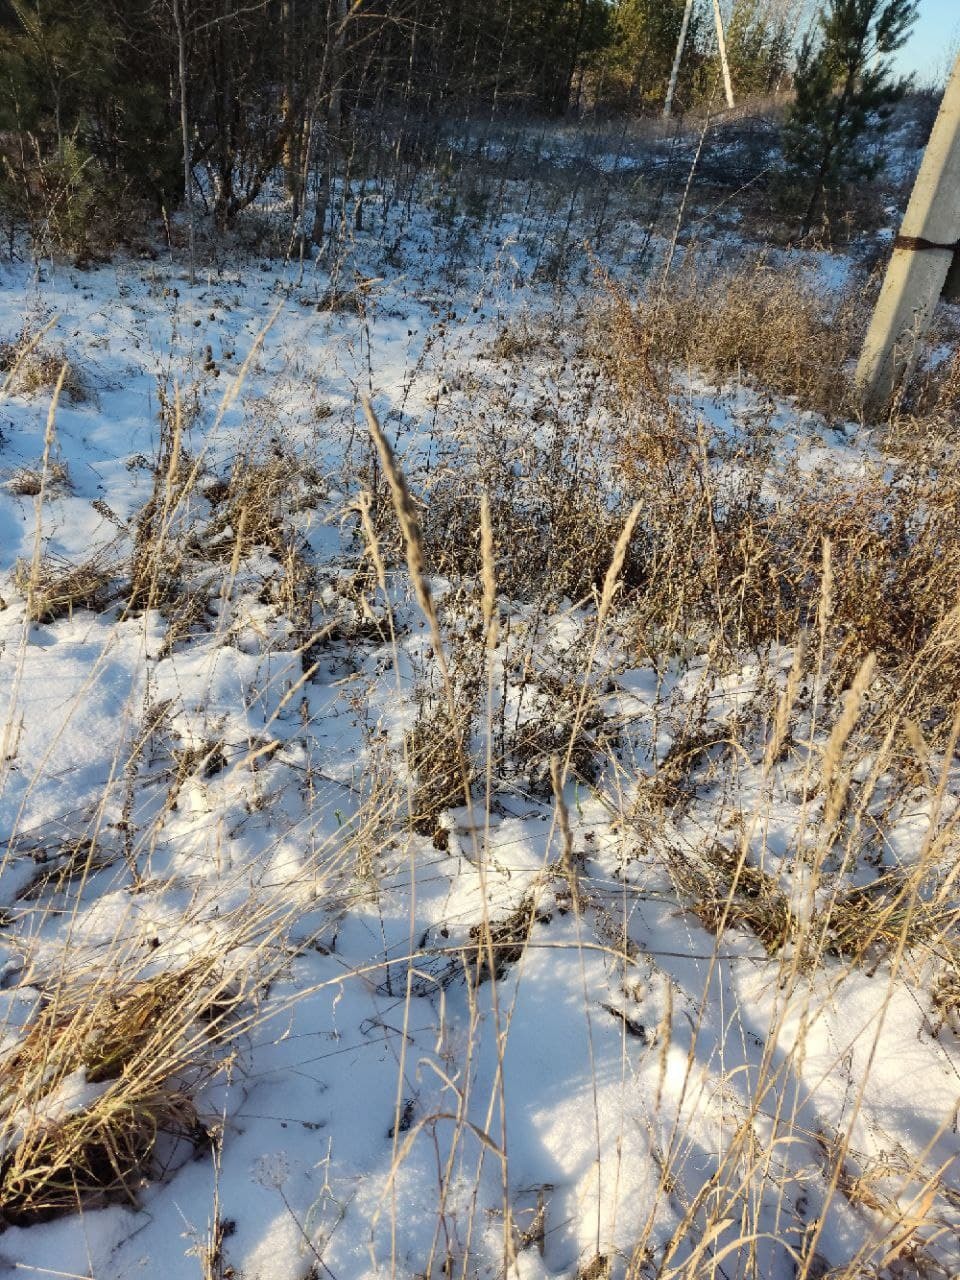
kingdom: Plantae
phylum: Tracheophyta
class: Liliopsida
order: Poales
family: Typhaceae
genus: Typha
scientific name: Typha latifolia
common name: Broadleaf cattail
